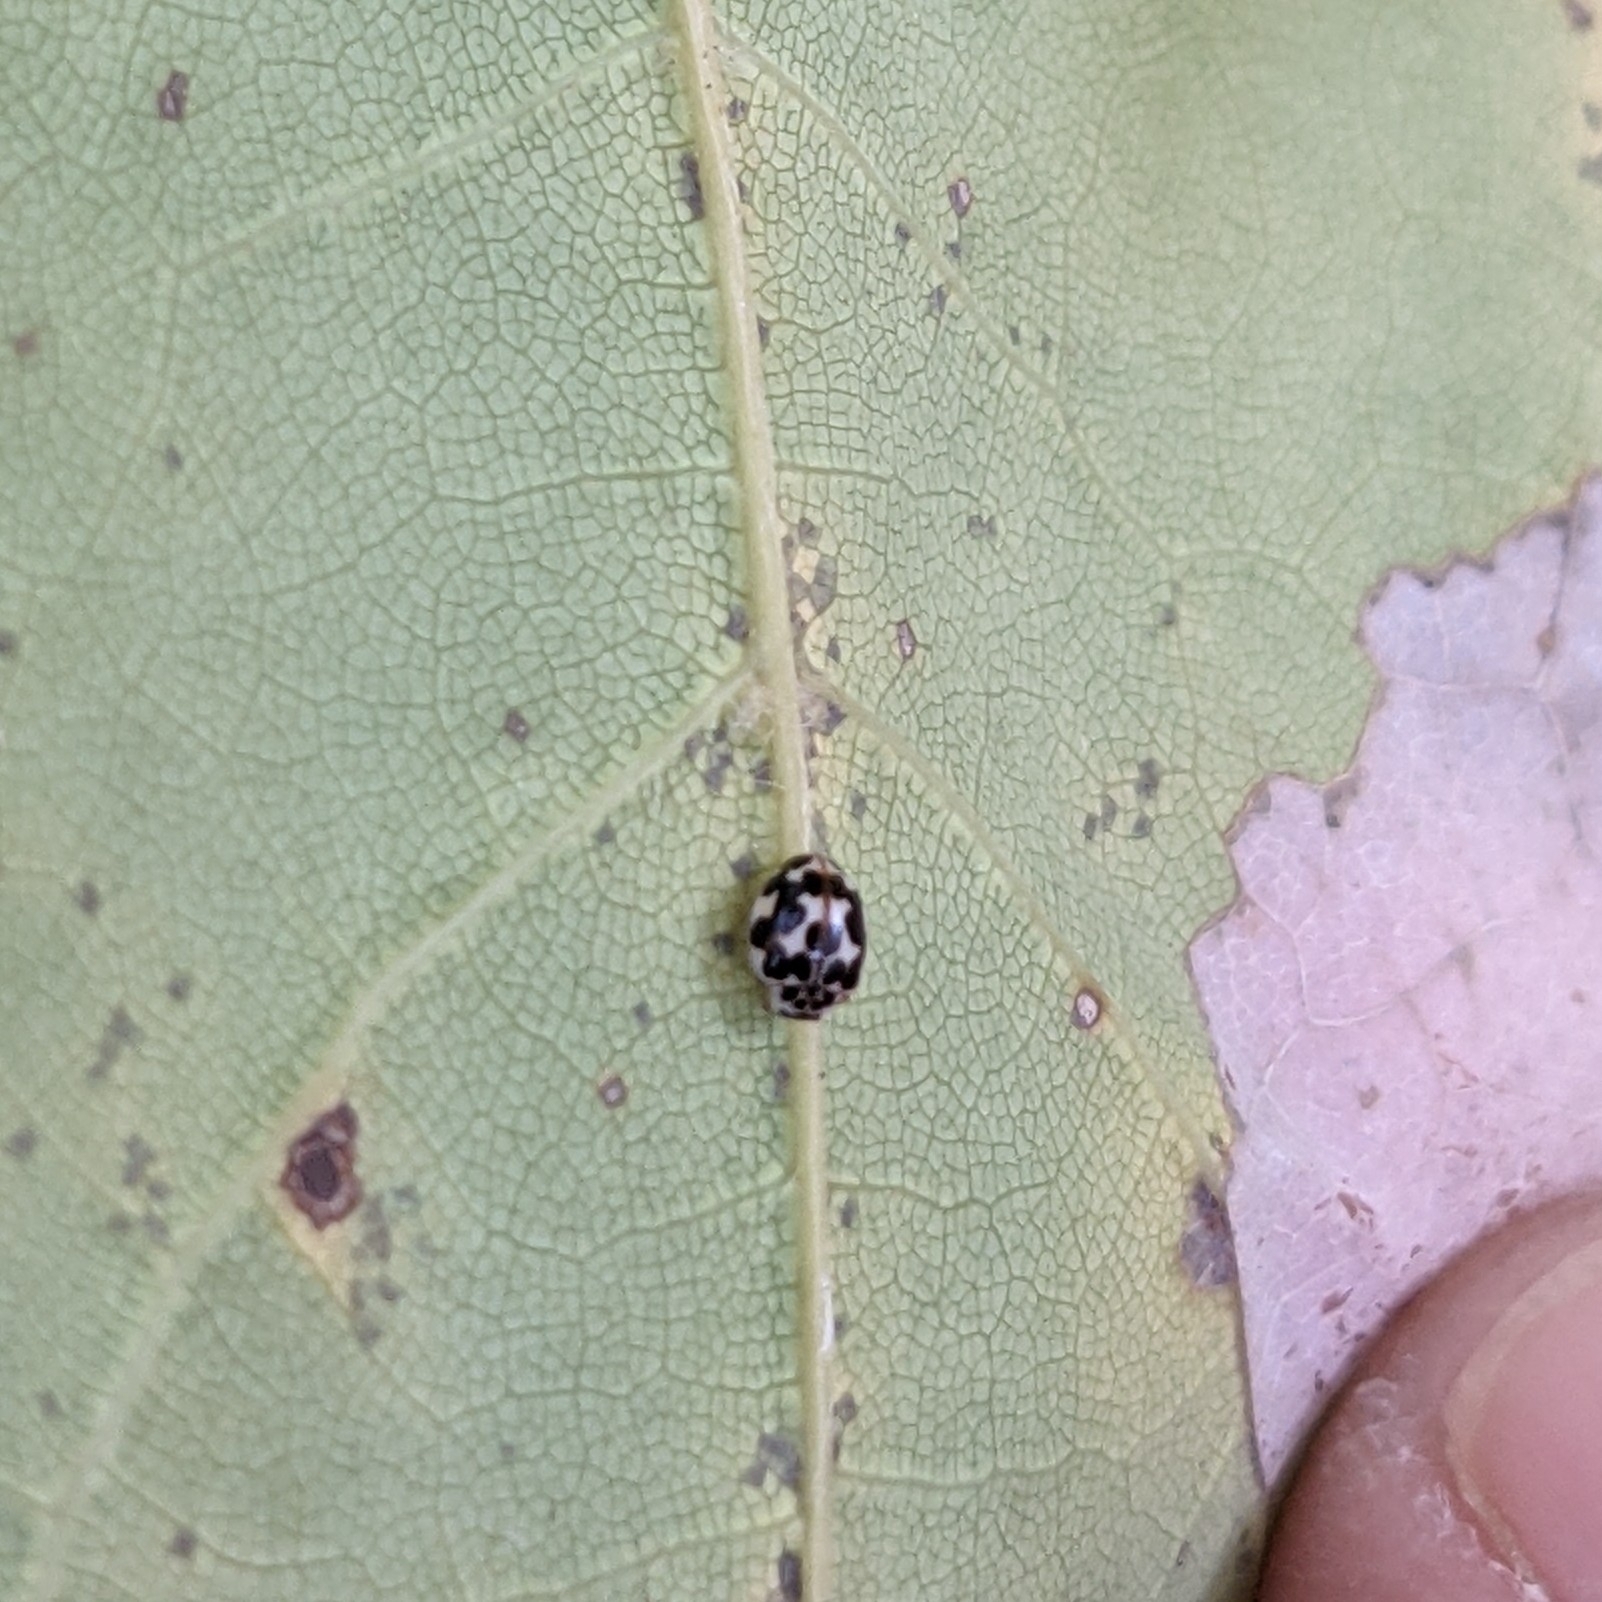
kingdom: Animalia
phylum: Arthropoda
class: Insecta
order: Coleoptera
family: Coccinellidae
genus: Psyllobora
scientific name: Psyllobora vigintimaculata
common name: Ladybird beetle
